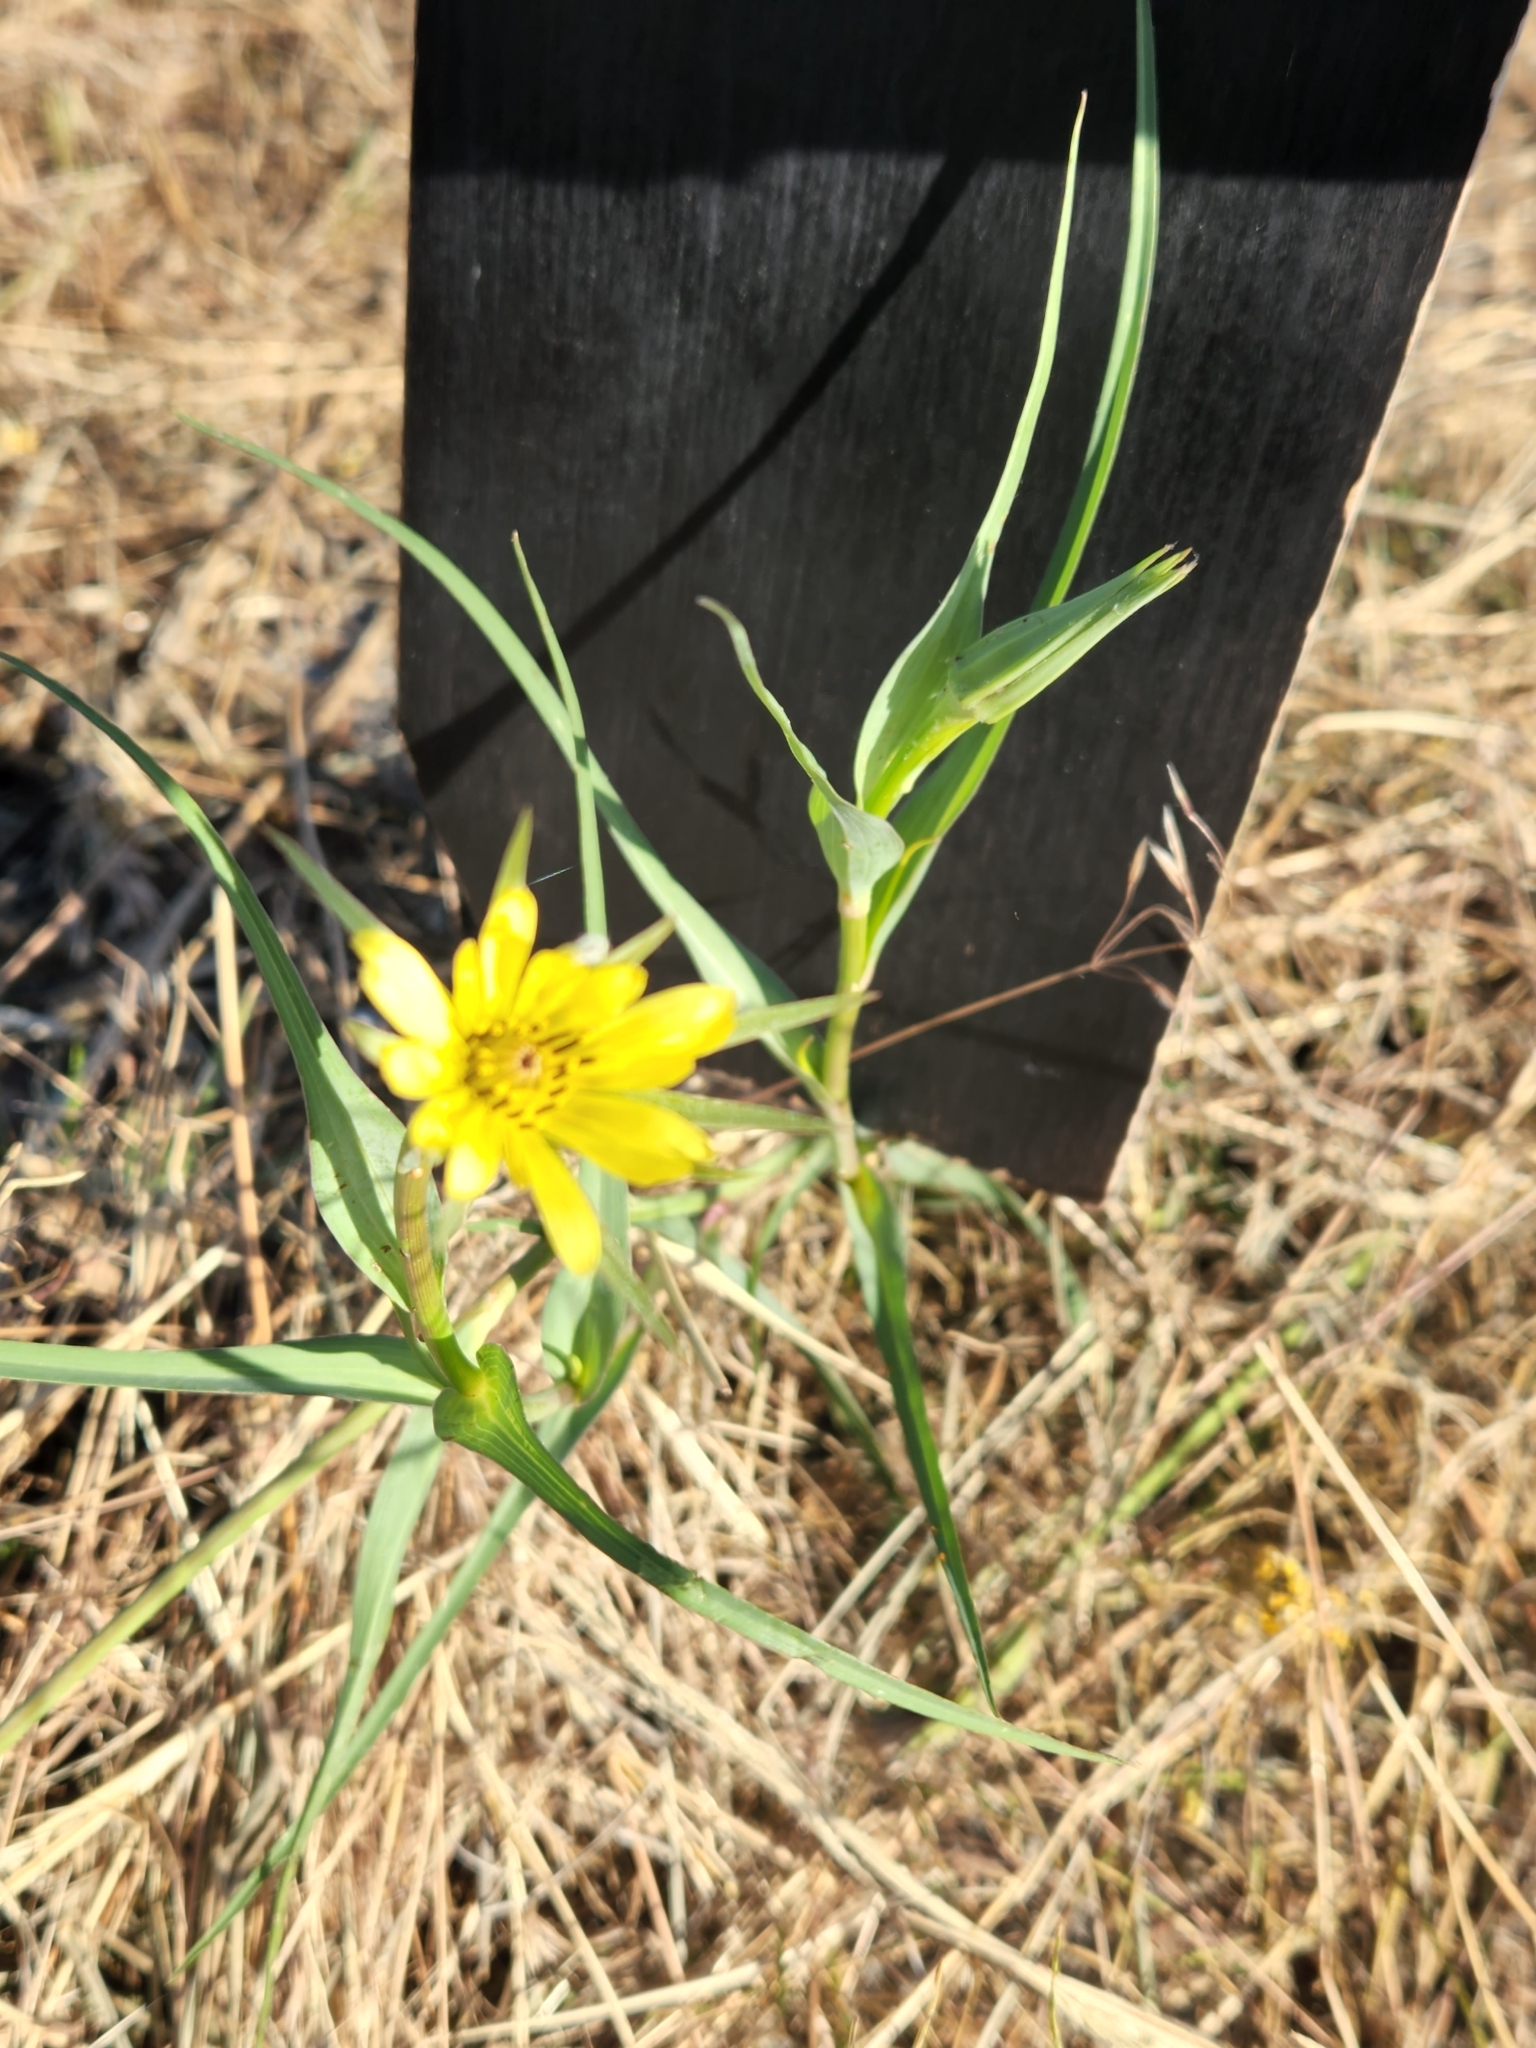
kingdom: Plantae
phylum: Tracheophyta
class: Magnoliopsida
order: Asterales
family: Asteraceae
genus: Tragopogon
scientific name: Tragopogon dubius
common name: Yellow salsify
